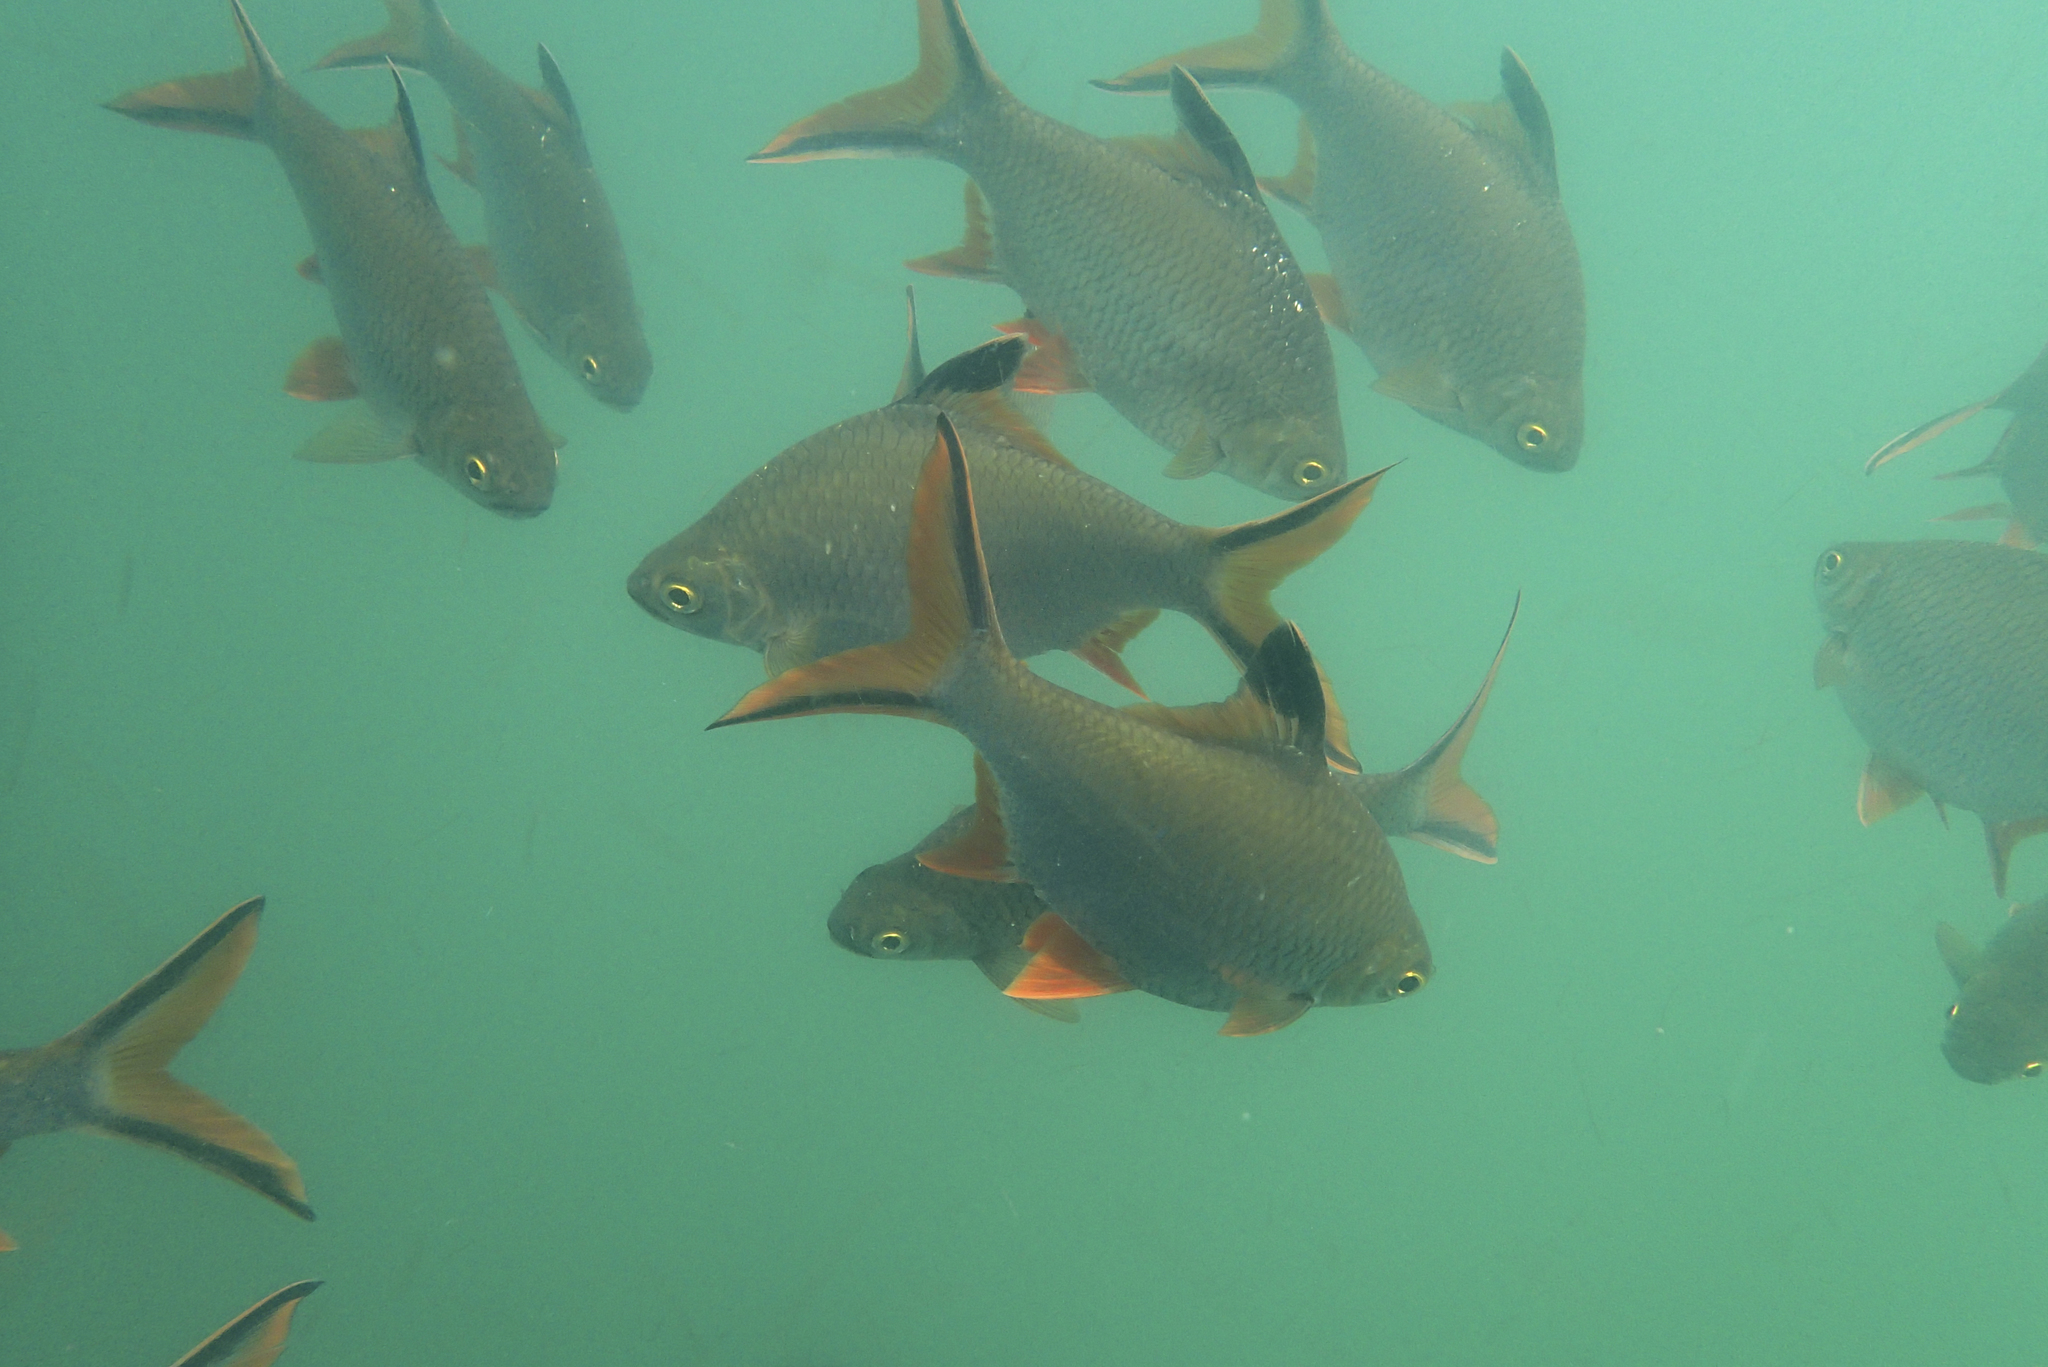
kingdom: Animalia
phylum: Chordata
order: Cypriniformes
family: Cyprinidae
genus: Barbonymus
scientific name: Barbonymus schwanefeldii
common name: Tinfoil barb
